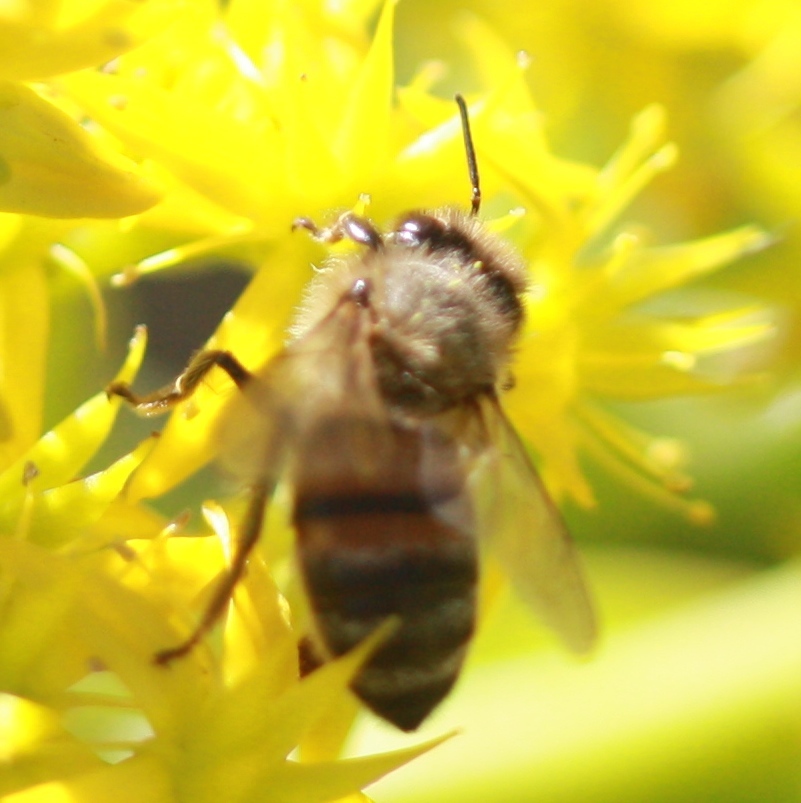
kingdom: Animalia
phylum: Arthropoda
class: Insecta
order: Hymenoptera
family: Apidae
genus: Apis
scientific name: Apis mellifera
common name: Honey bee
